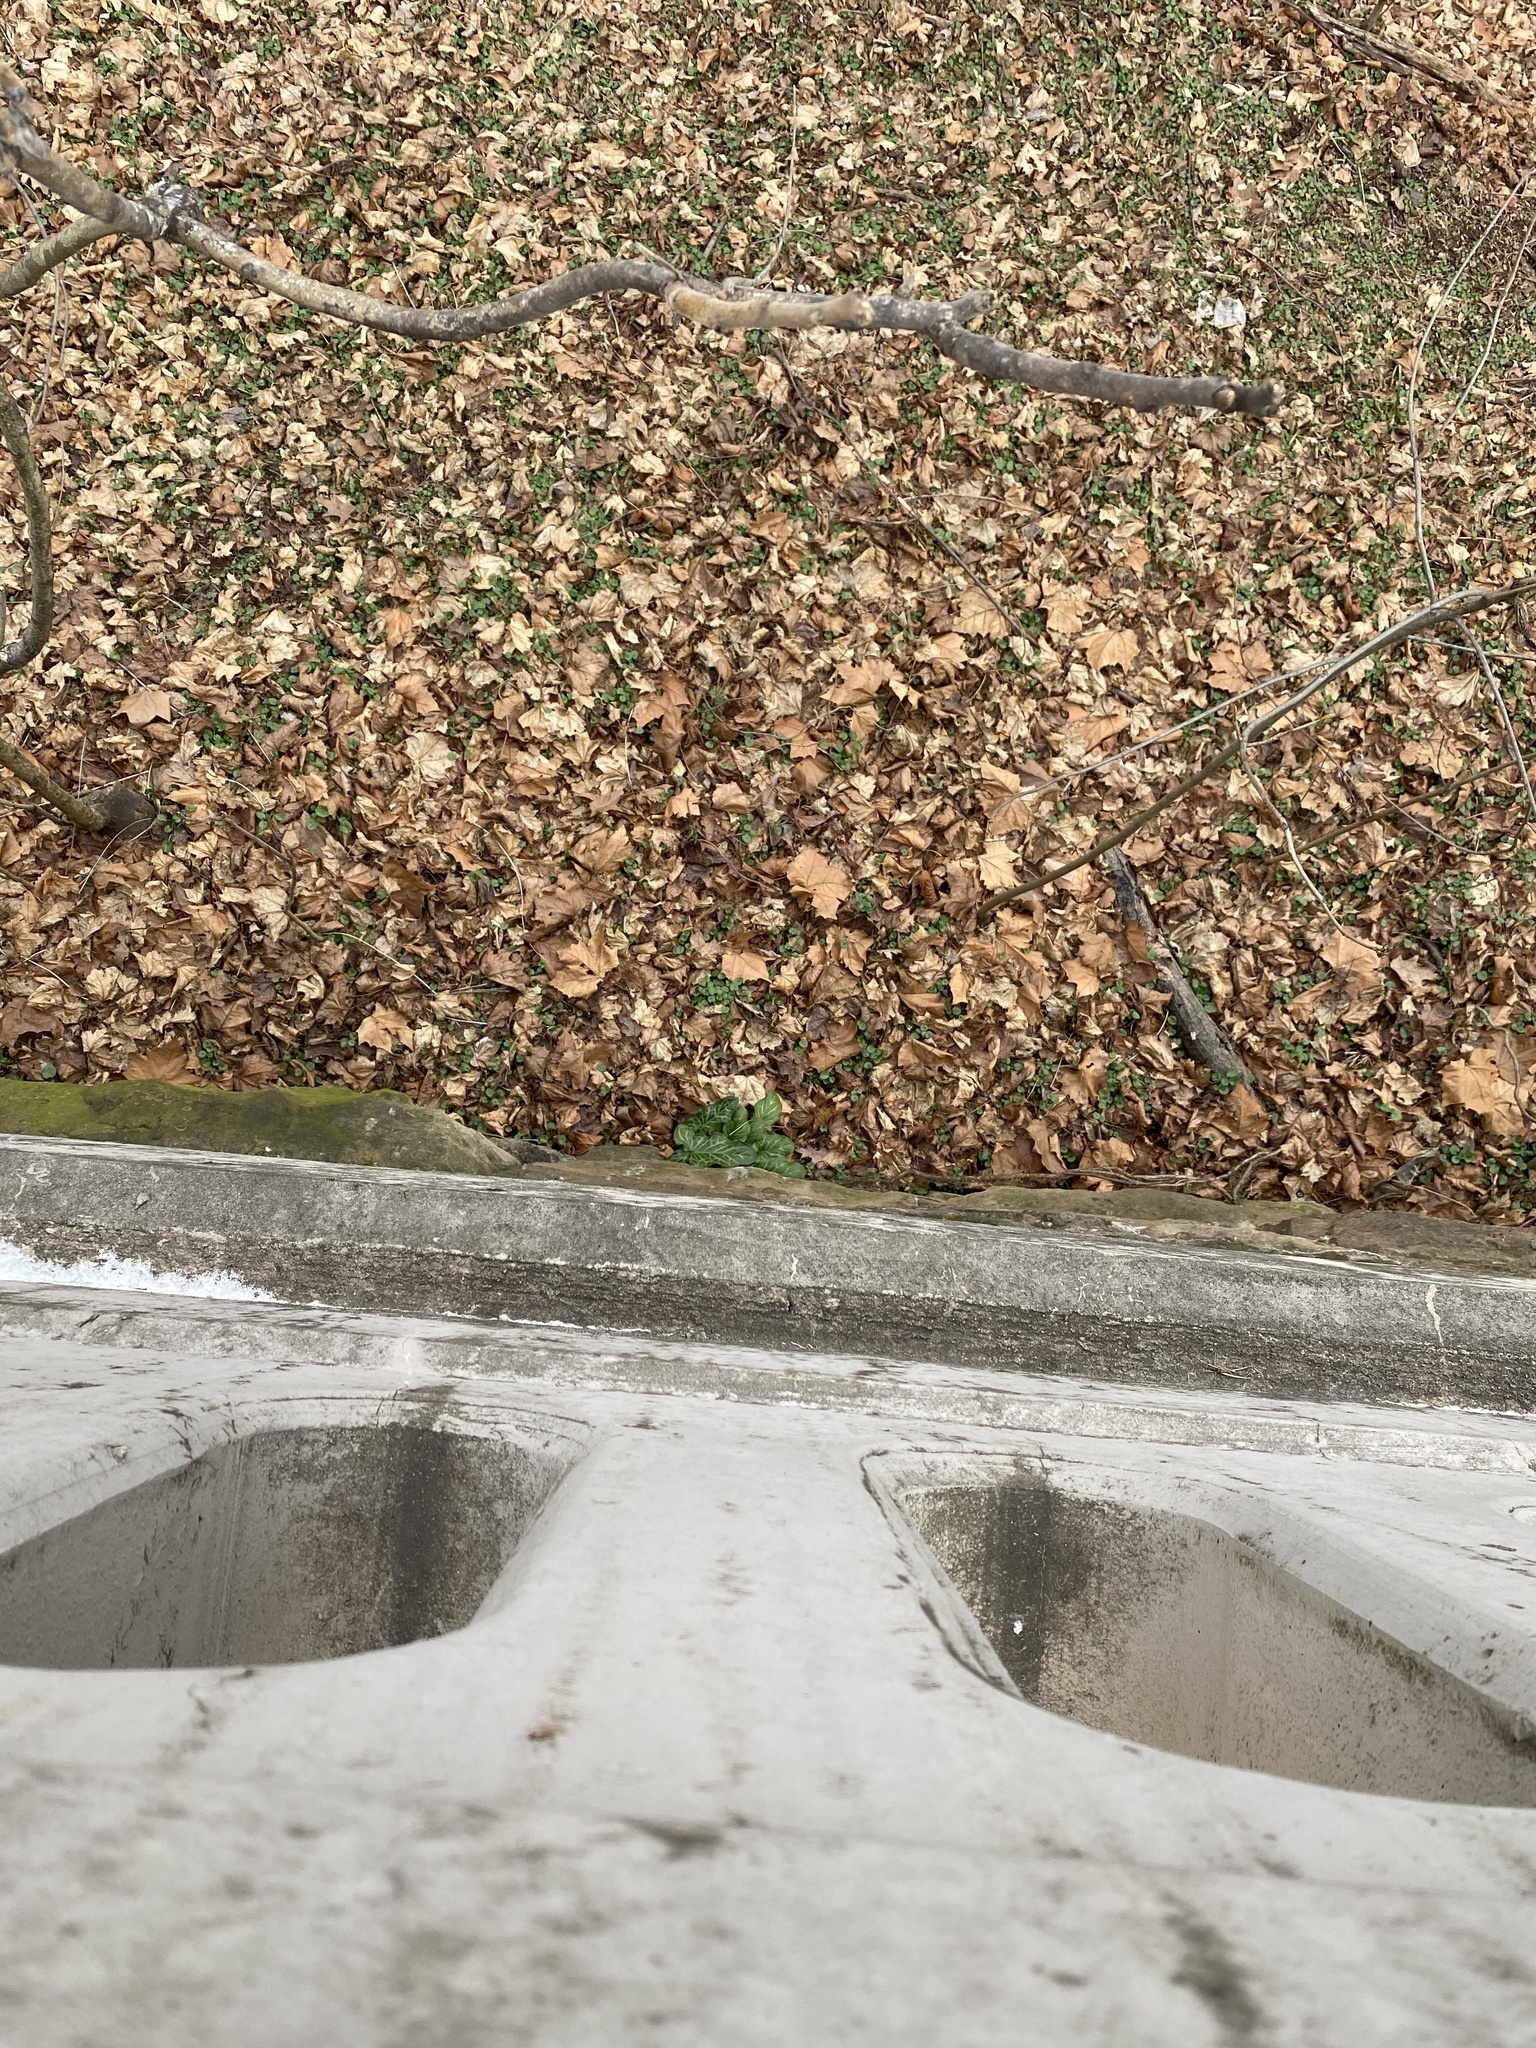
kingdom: Plantae
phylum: Tracheophyta
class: Liliopsida
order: Alismatales
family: Araceae
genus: Arum
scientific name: Arum italicum
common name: Italian lords-and-ladies
